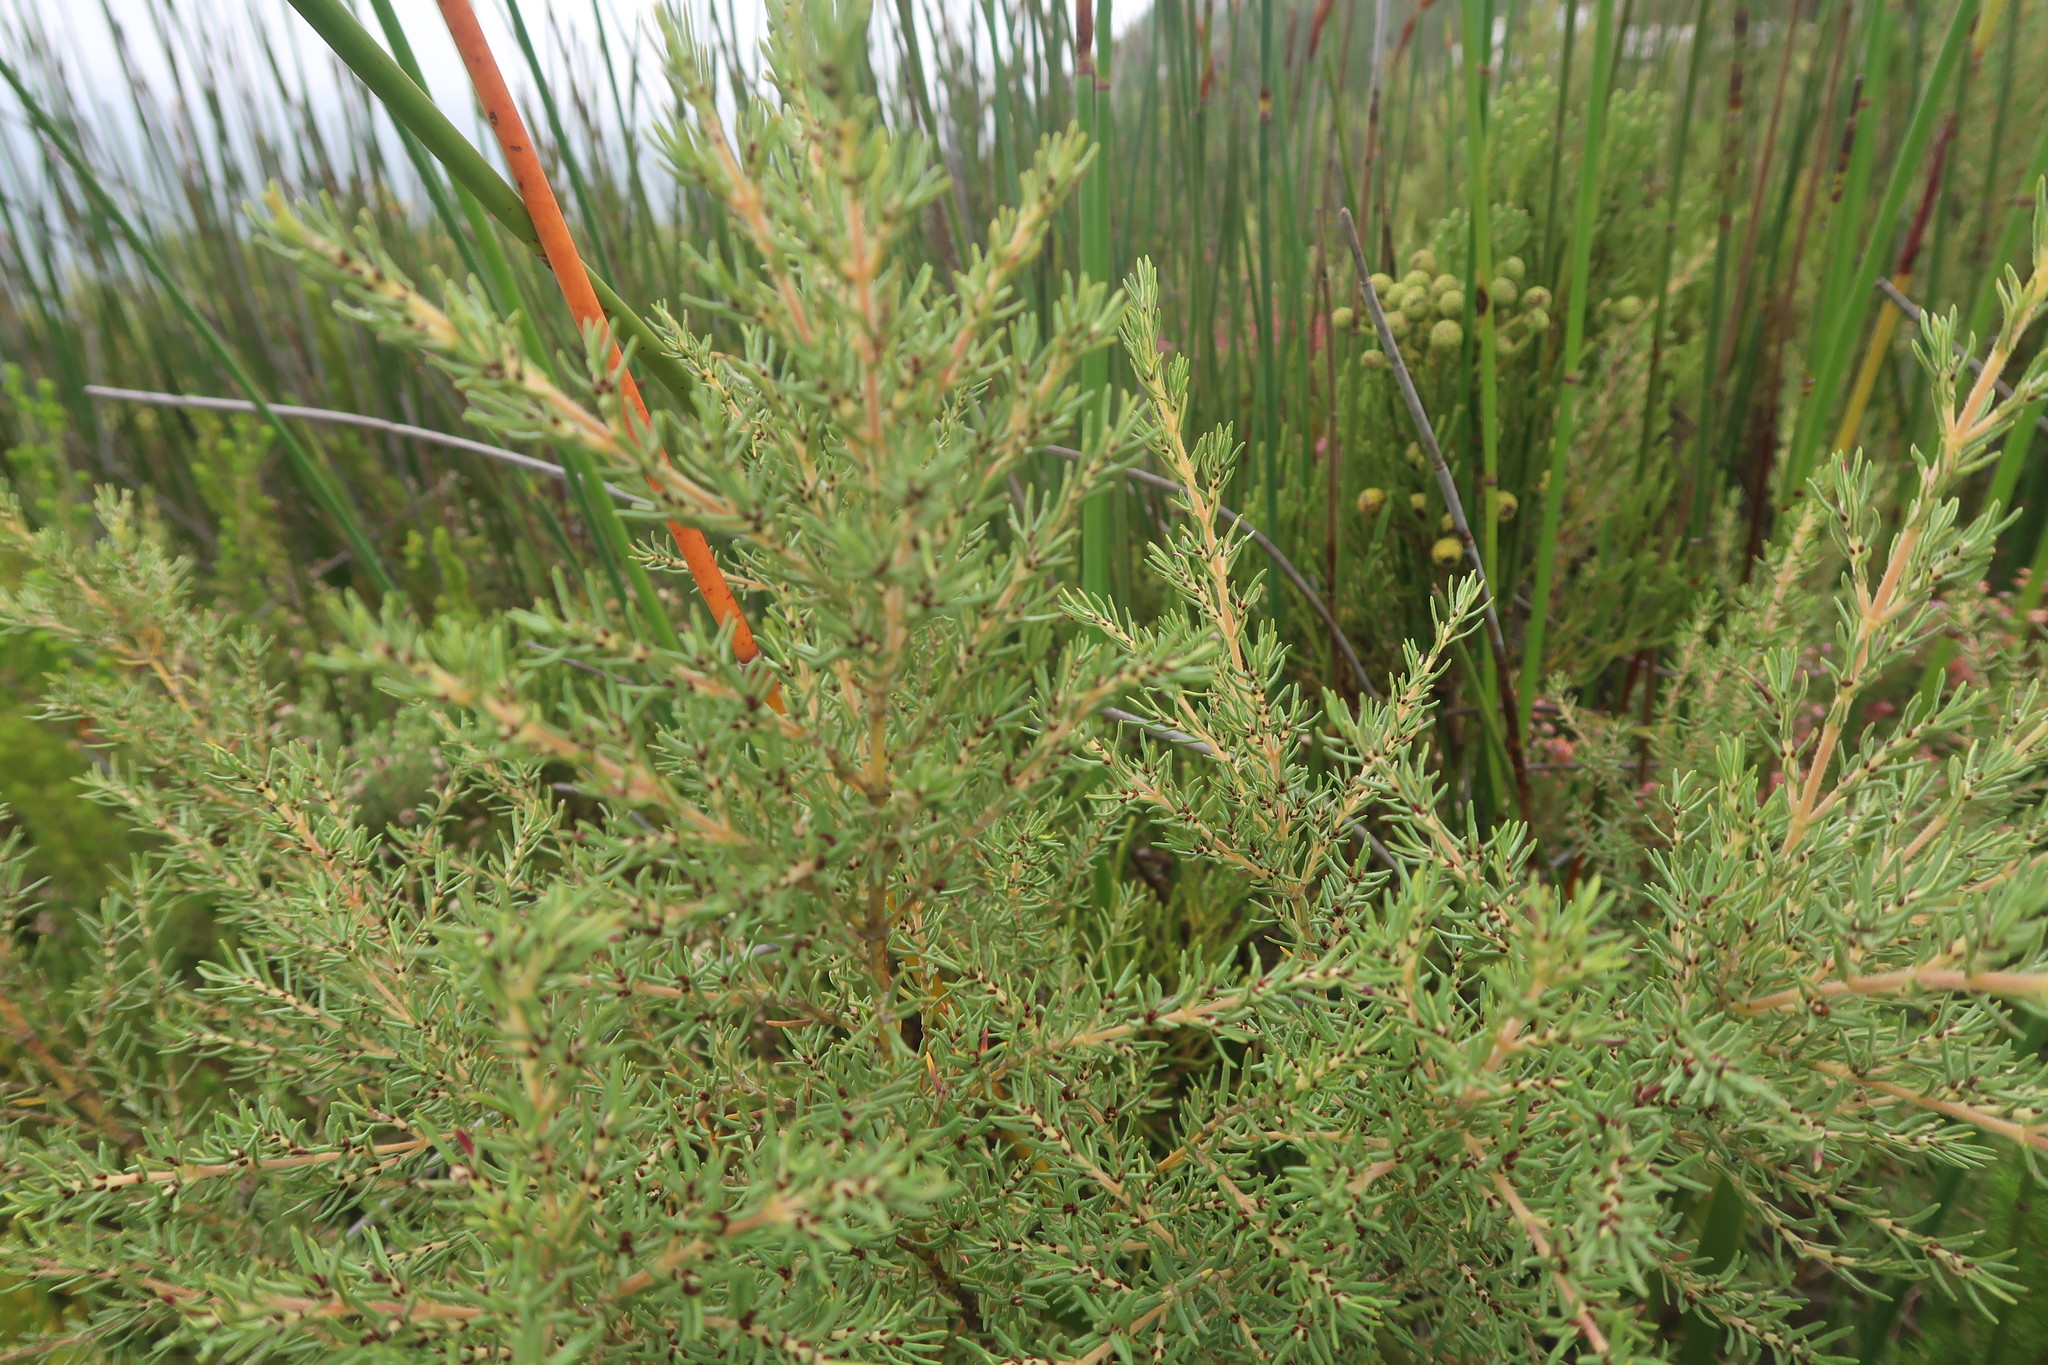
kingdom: Plantae
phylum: Tracheophyta
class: Magnoliopsida
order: Cornales
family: Grubbiaceae
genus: Grubbia
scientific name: Grubbia rosmarinifolia
